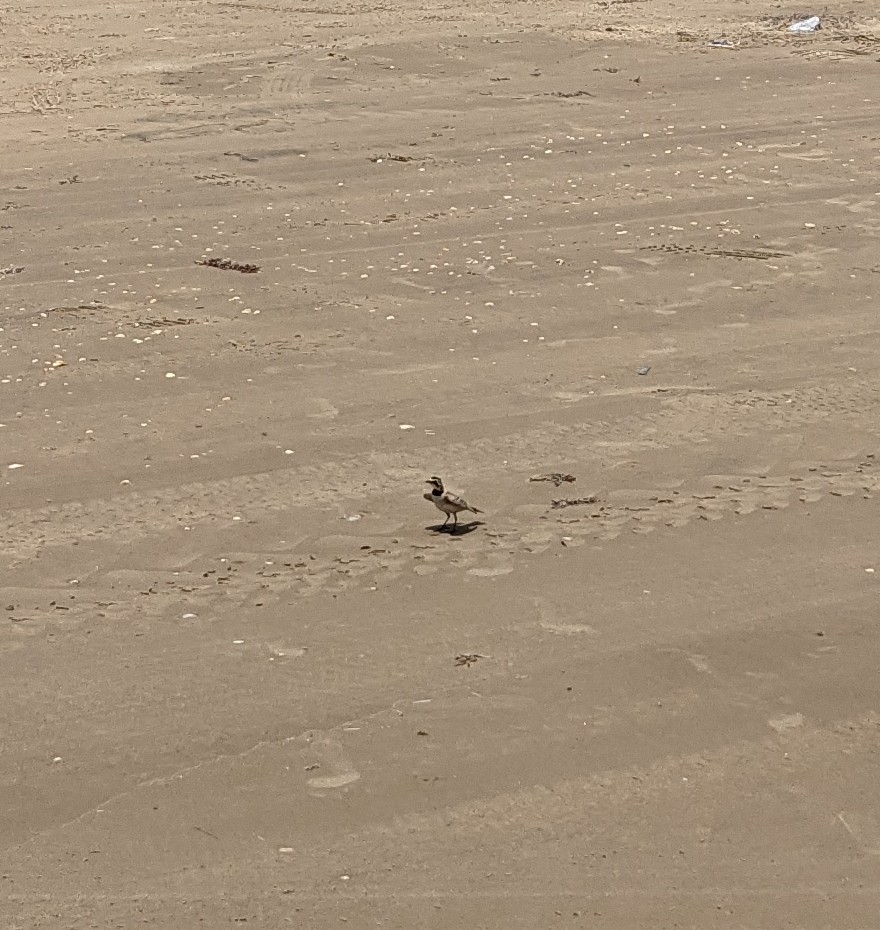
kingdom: Animalia
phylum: Chordata
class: Aves
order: Passeriformes
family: Alaudidae
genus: Eremophila
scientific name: Eremophila alpestris
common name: Horned lark
